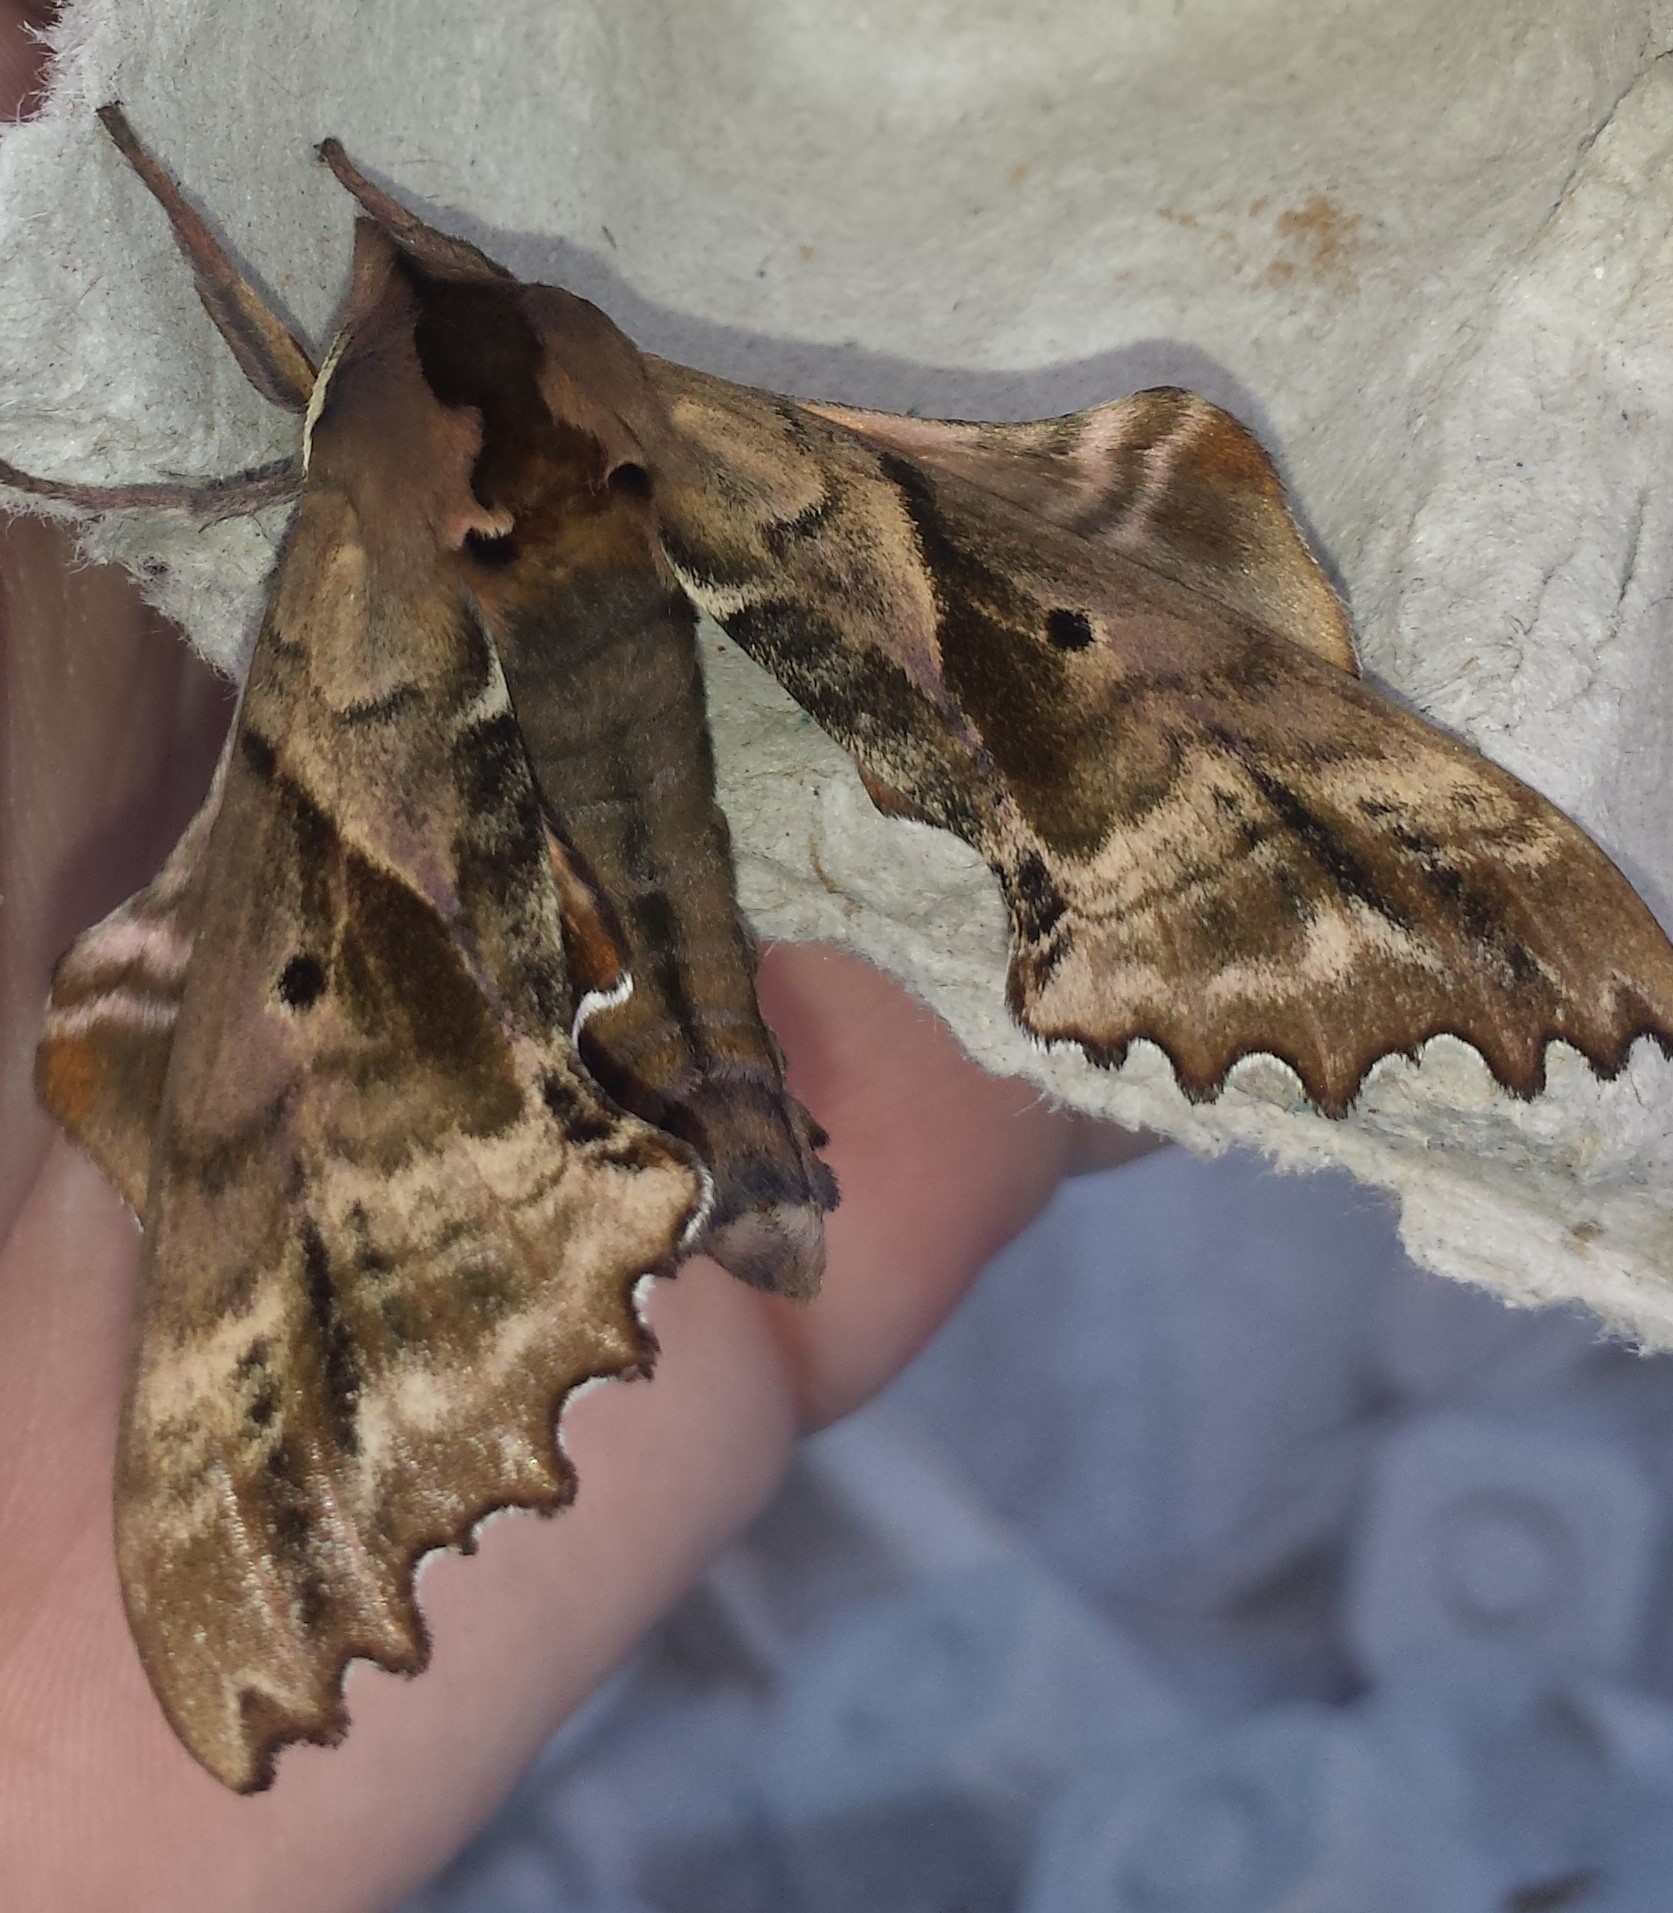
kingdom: Animalia
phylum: Arthropoda
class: Insecta
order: Lepidoptera
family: Sphingidae
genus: Paonias
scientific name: Paonias excaecata
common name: Blind-eyed sphinx
